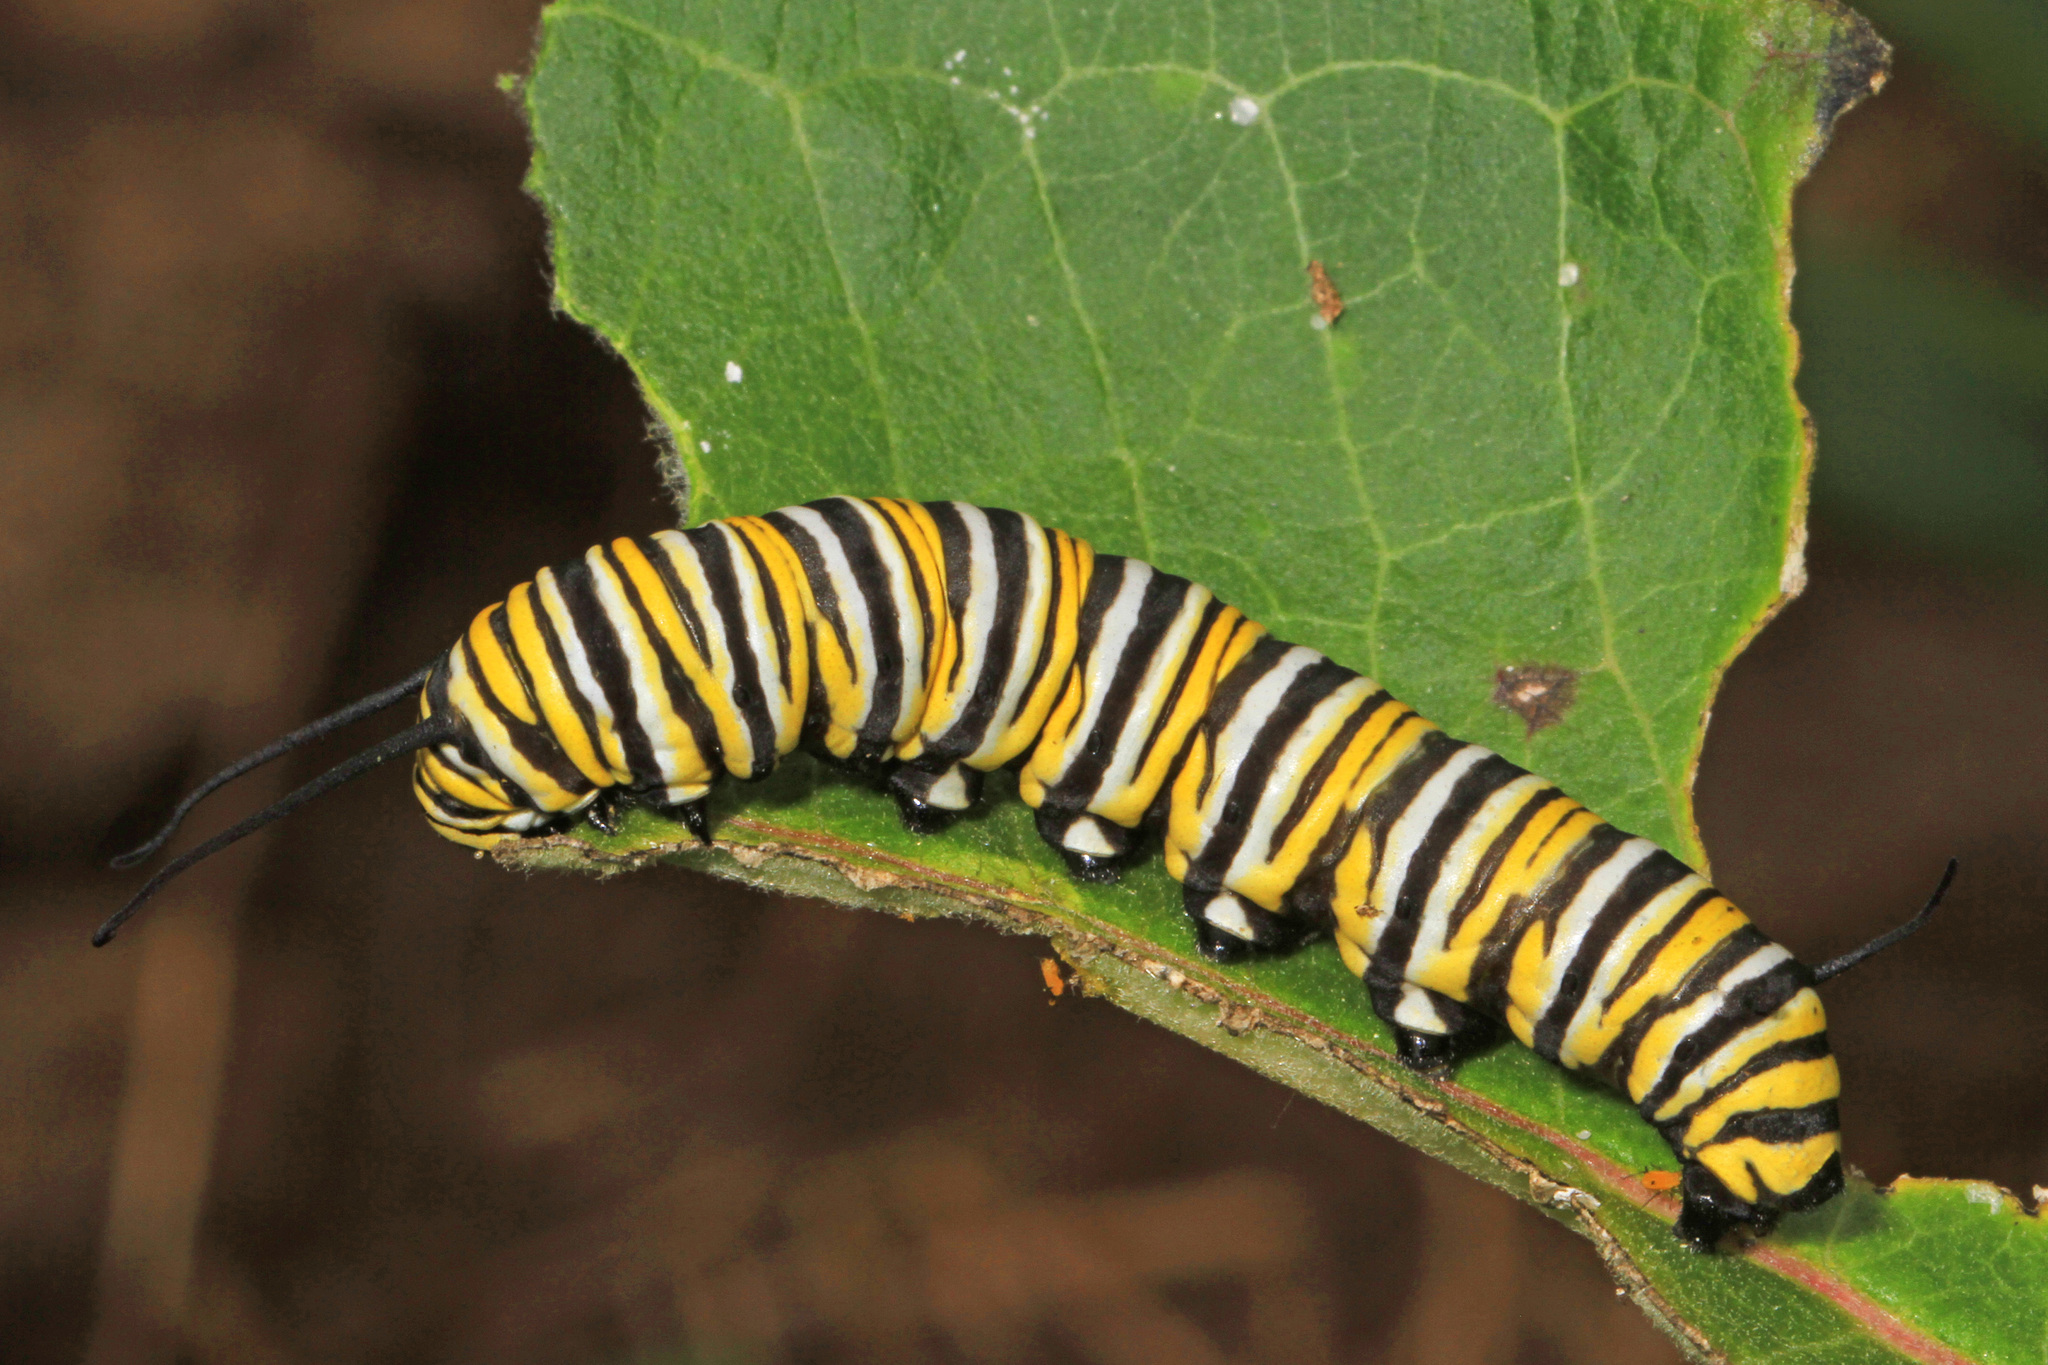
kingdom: Animalia
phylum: Arthropoda
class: Insecta
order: Lepidoptera
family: Nymphalidae
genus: Danaus
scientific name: Danaus plexippus
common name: Monarch
